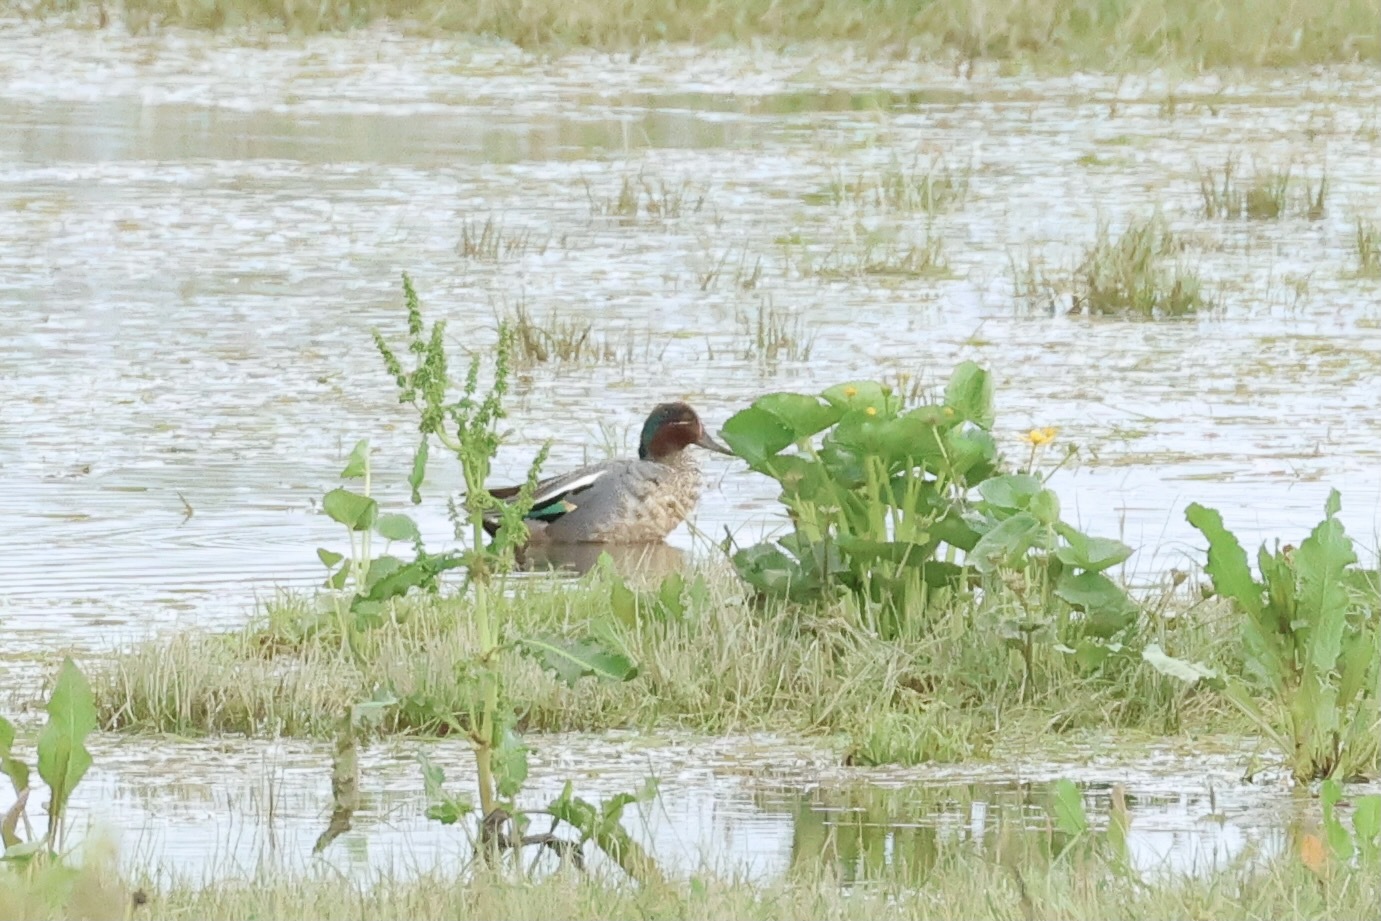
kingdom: Animalia
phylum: Chordata
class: Aves
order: Anseriformes
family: Anatidae
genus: Anas
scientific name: Anas crecca
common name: Eurasian teal
